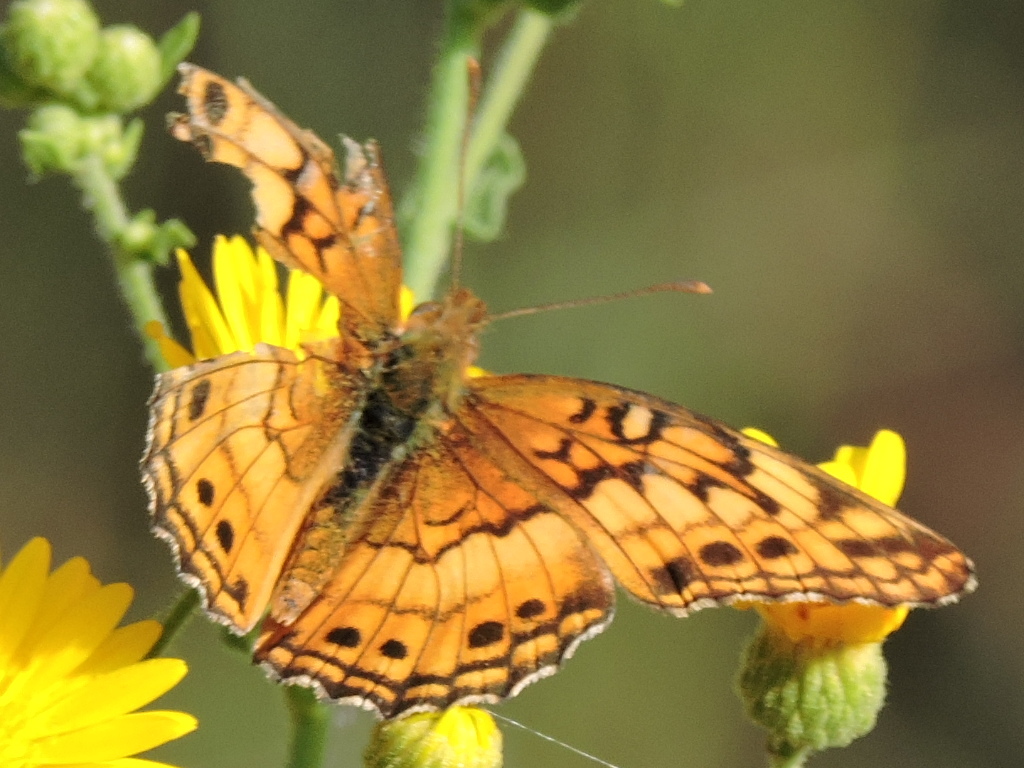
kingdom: Animalia
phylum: Arthropoda
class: Insecta
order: Lepidoptera
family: Nymphalidae
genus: Euptoieta
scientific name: Euptoieta claudia
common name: Variegated fritillary
